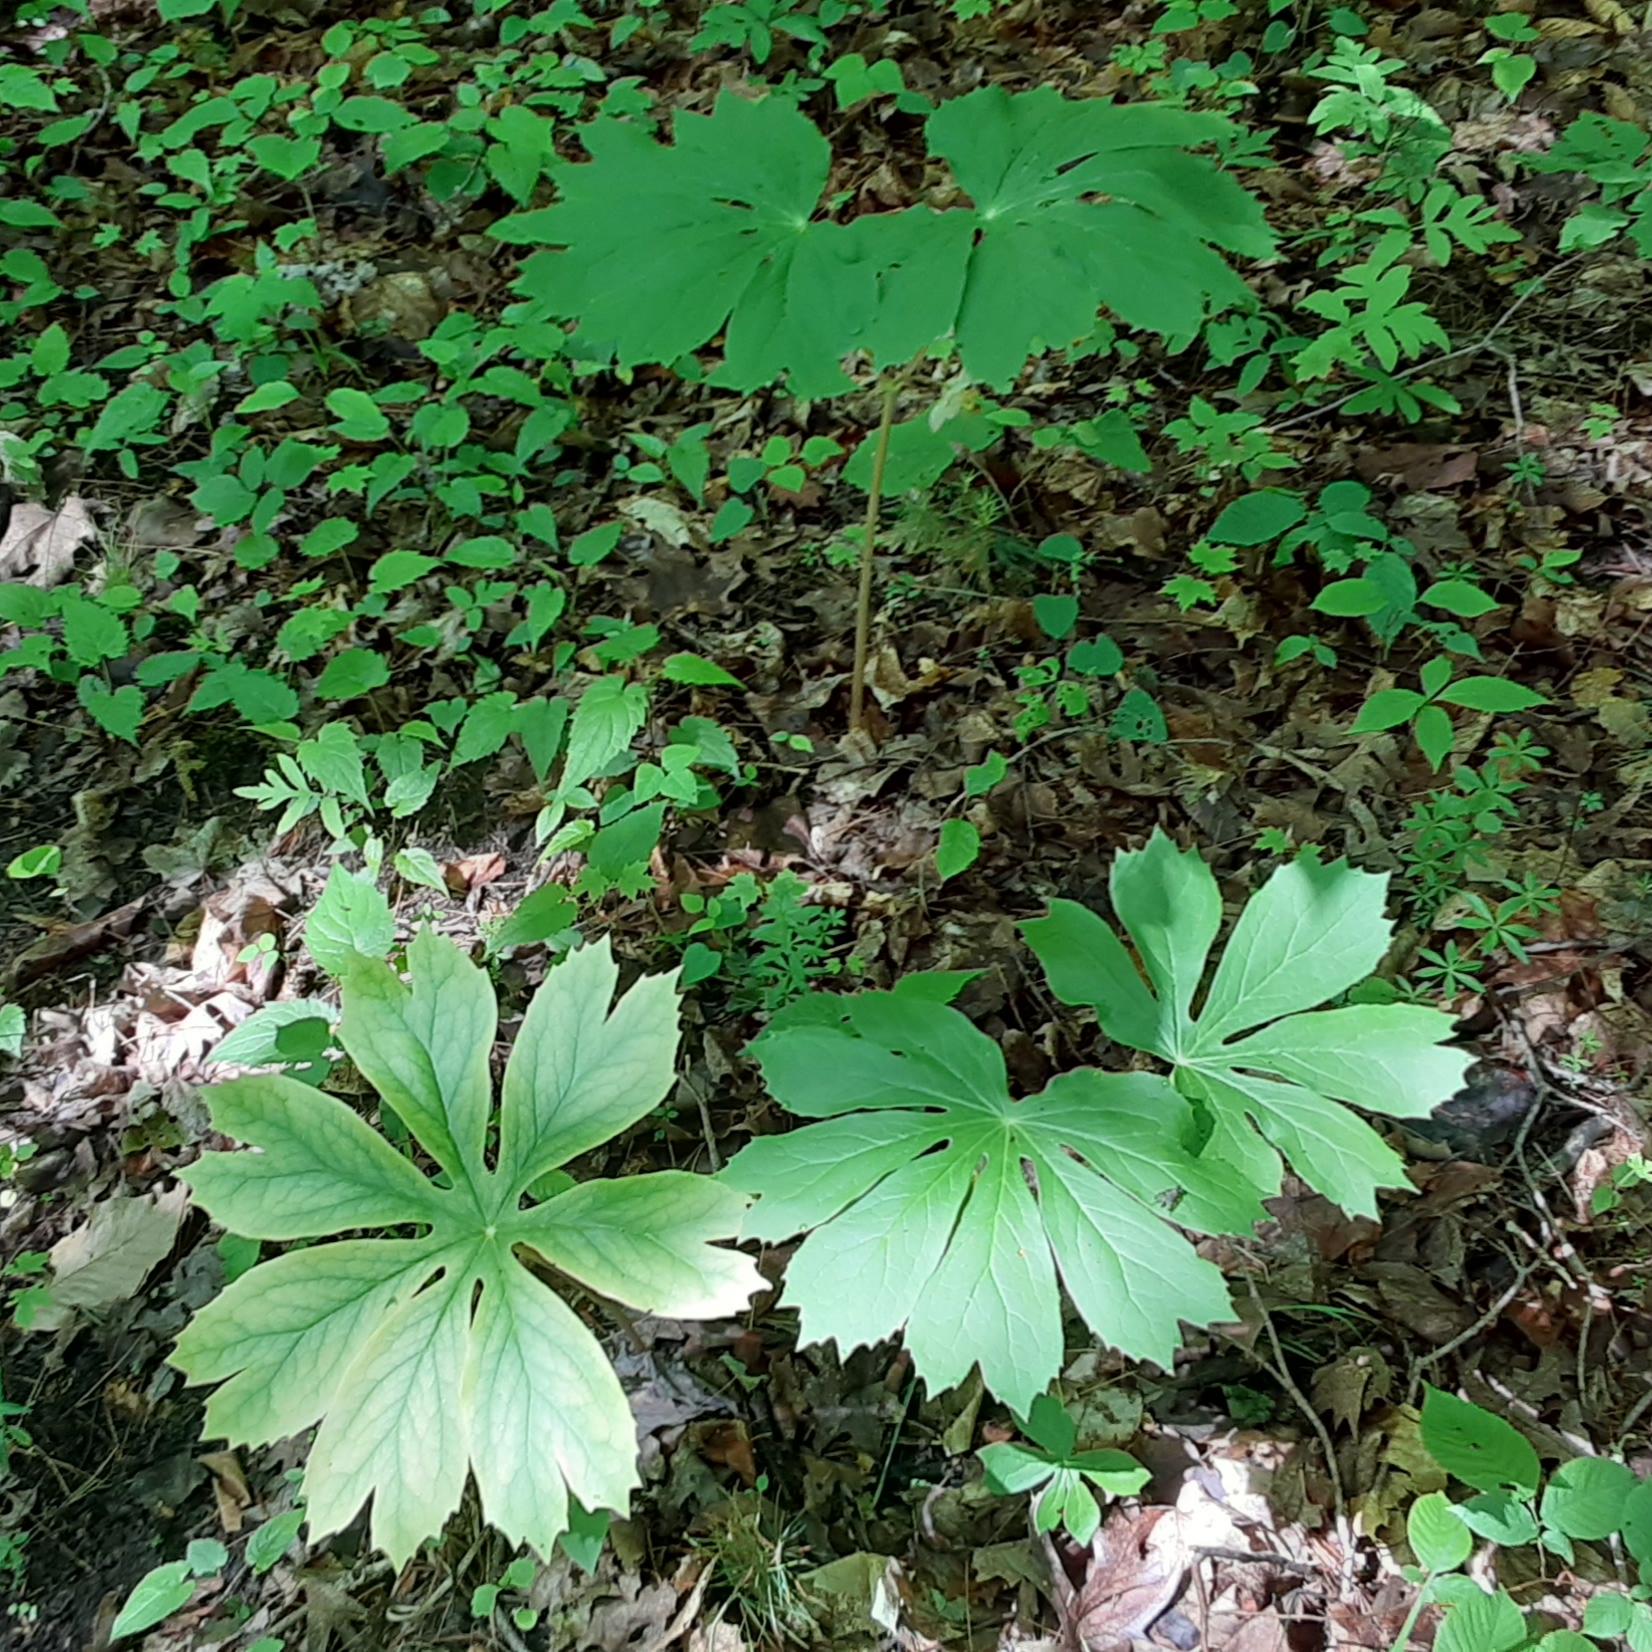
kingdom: Plantae
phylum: Tracheophyta
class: Magnoliopsida
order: Ranunculales
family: Berberidaceae
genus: Podophyllum
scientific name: Podophyllum peltatum
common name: Wild mandrake
